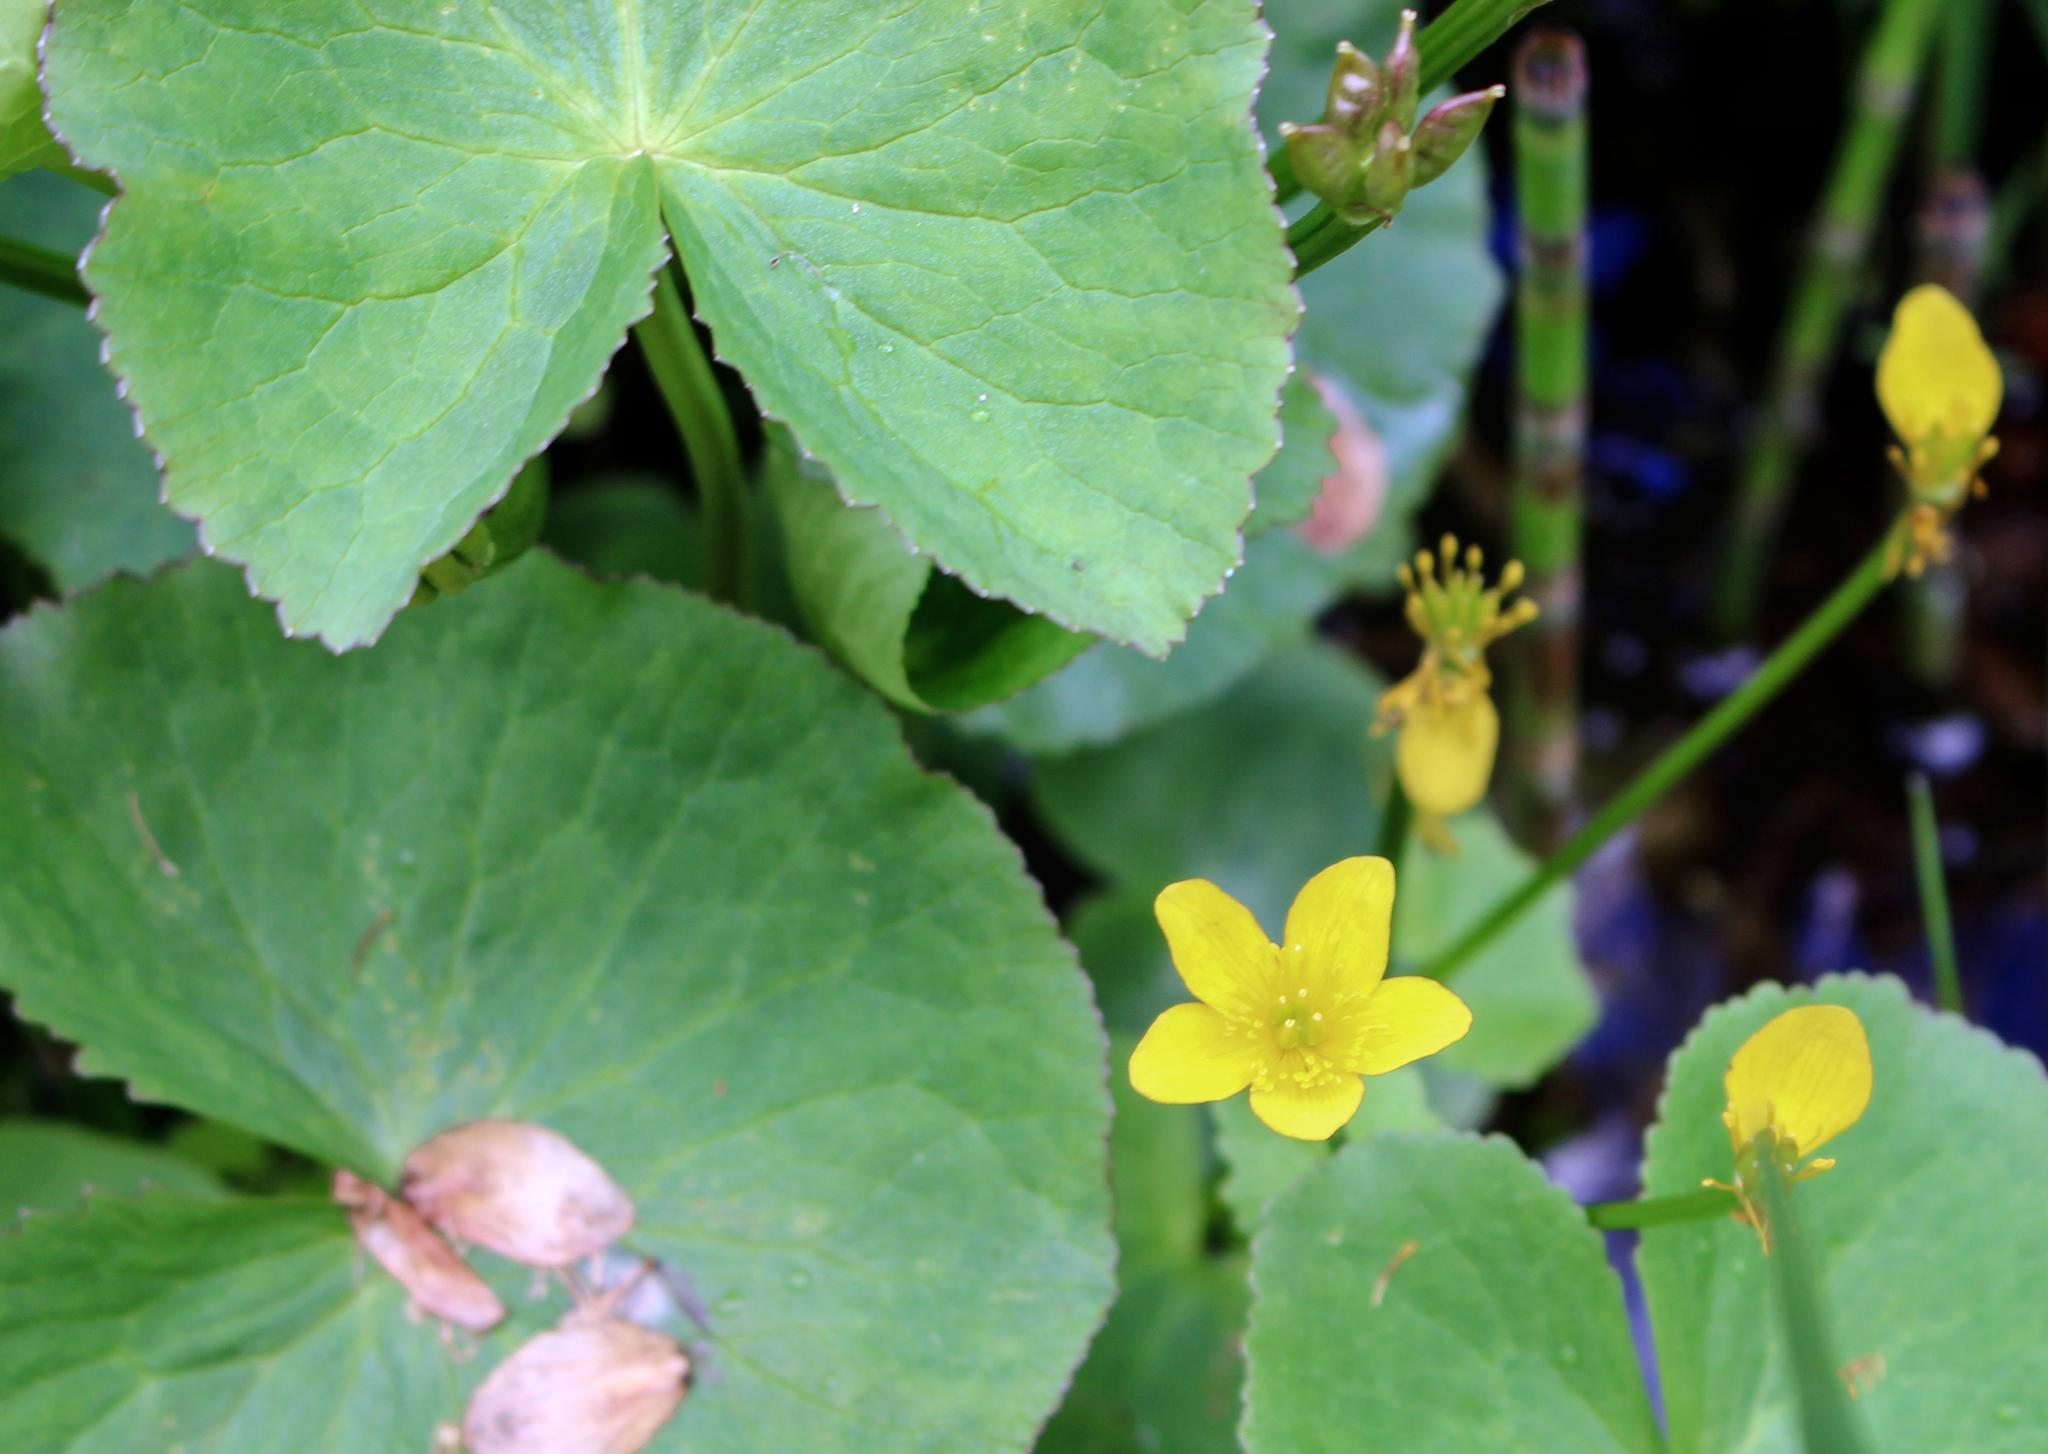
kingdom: Plantae
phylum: Tracheophyta
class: Magnoliopsida
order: Ranunculales
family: Ranunculaceae
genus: Caltha
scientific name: Caltha palustris
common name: Marsh marigold
